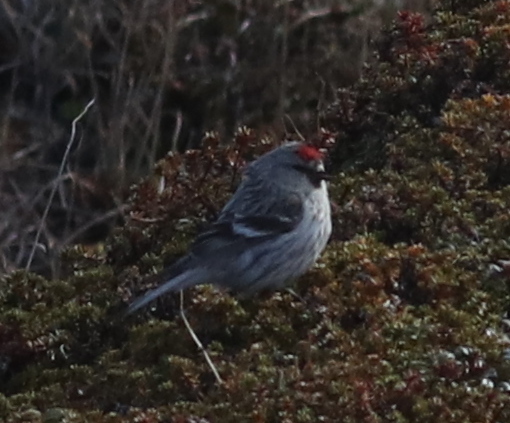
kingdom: Animalia
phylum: Chordata
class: Aves
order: Passeriformes
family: Fringillidae
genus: Acanthis
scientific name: Acanthis hornemanni
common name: Arctic redpoll
